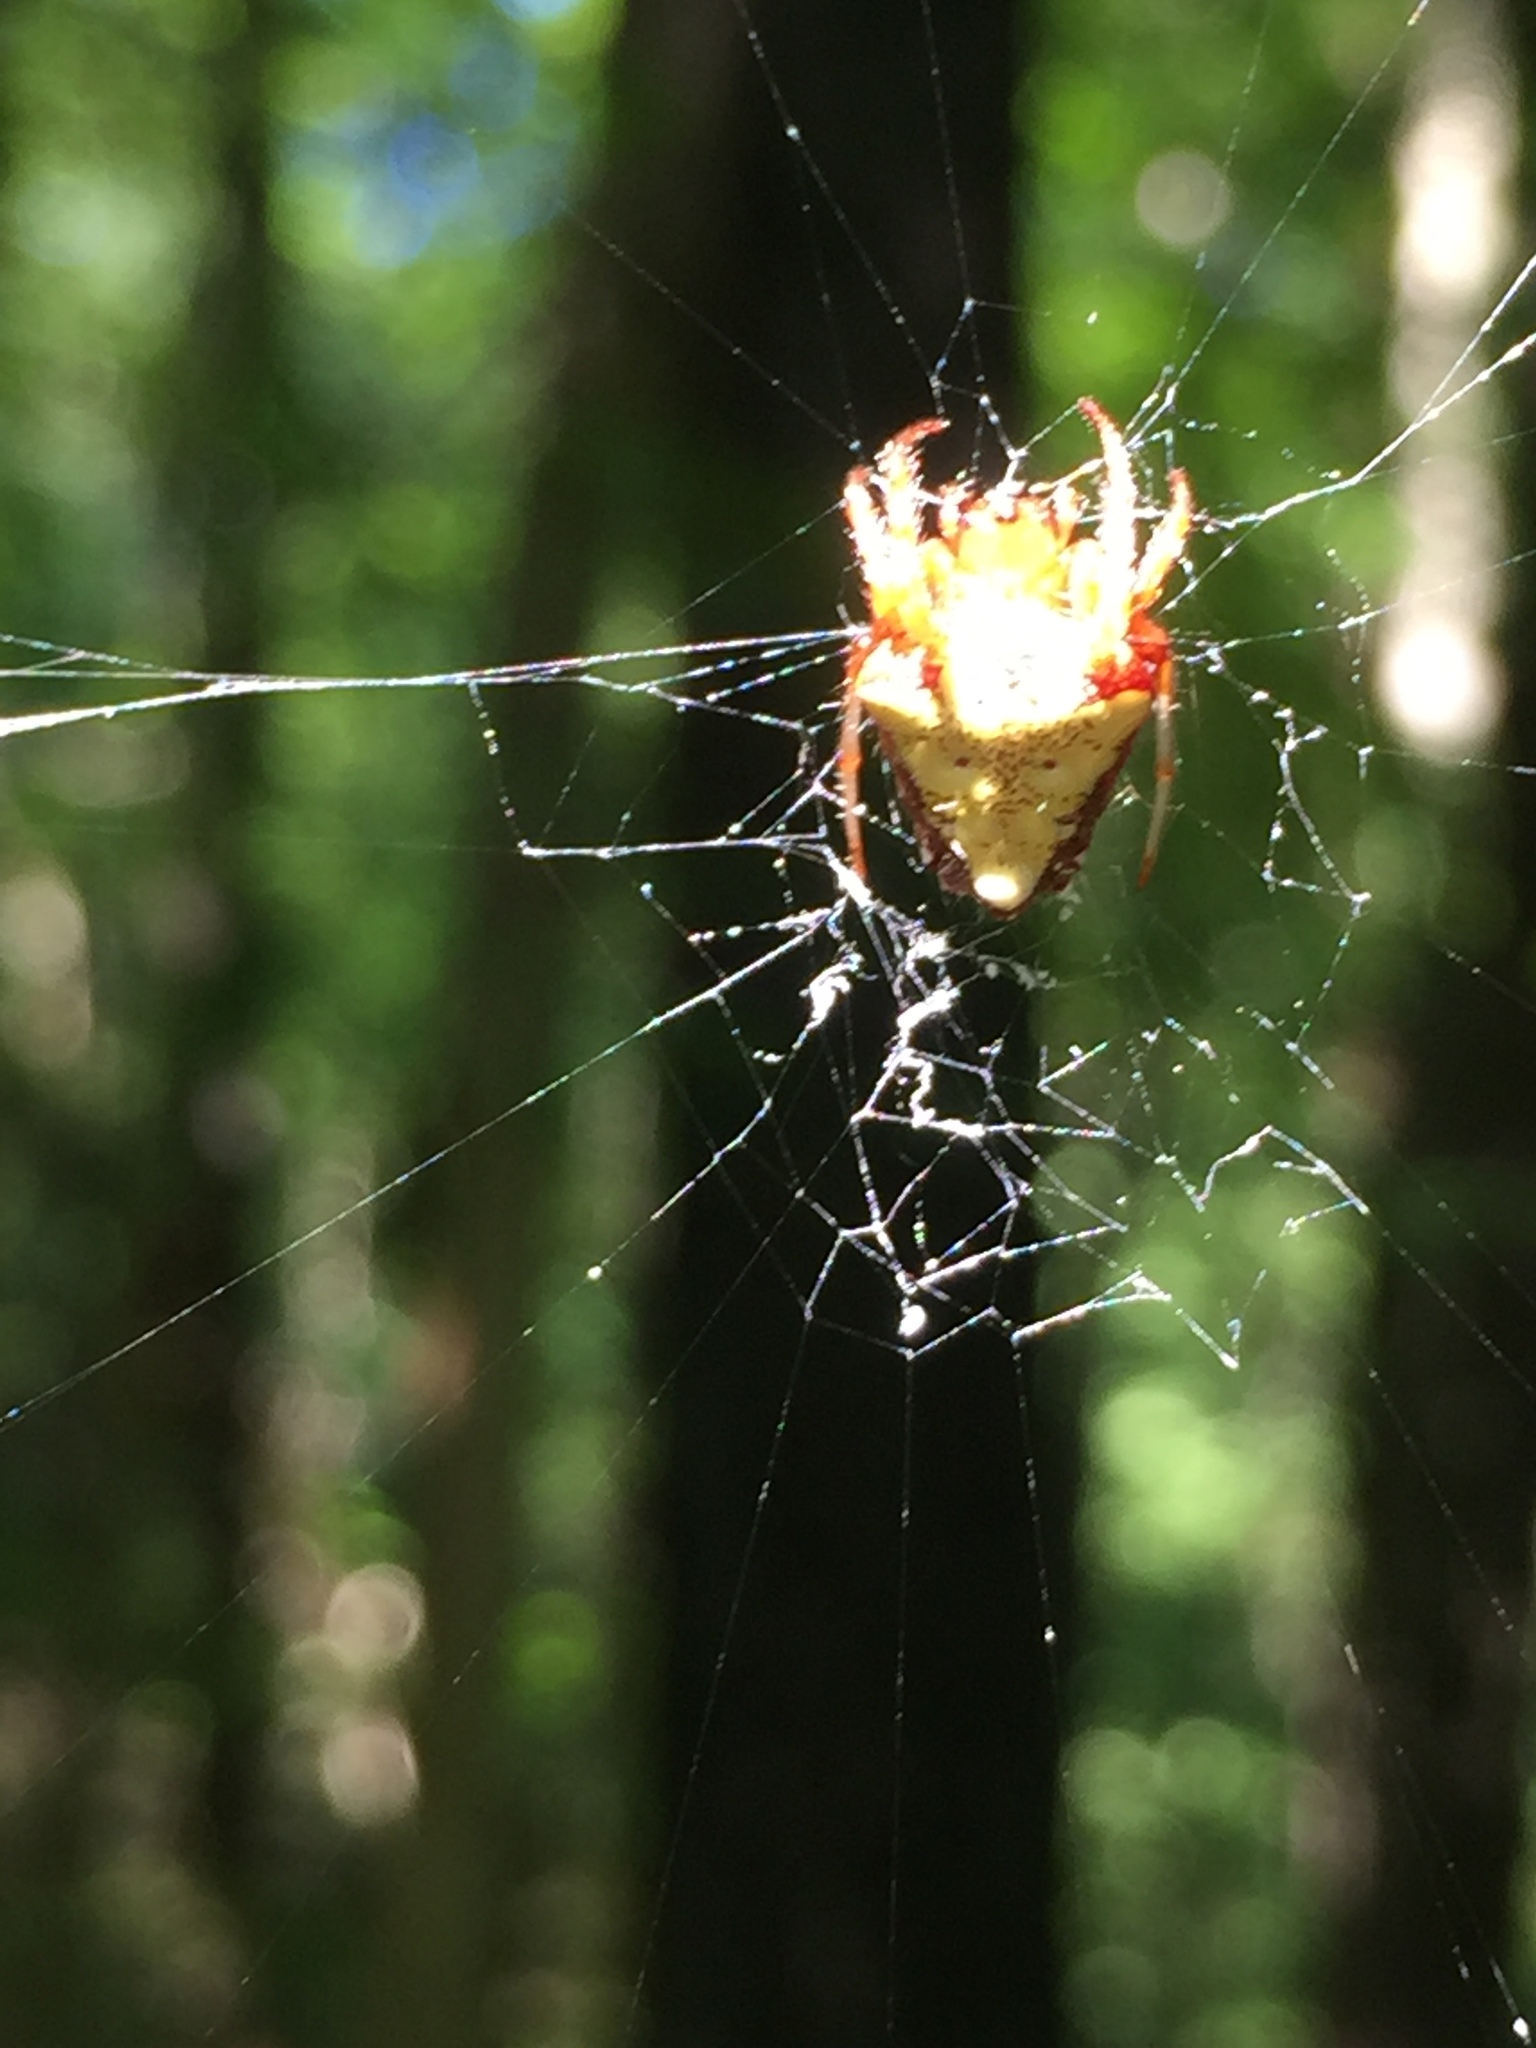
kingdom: Animalia
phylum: Arthropoda
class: Arachnida
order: Araneae
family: Araneidae
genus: Verrucosa
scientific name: Verrucosa arenata
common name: Orb weavers
